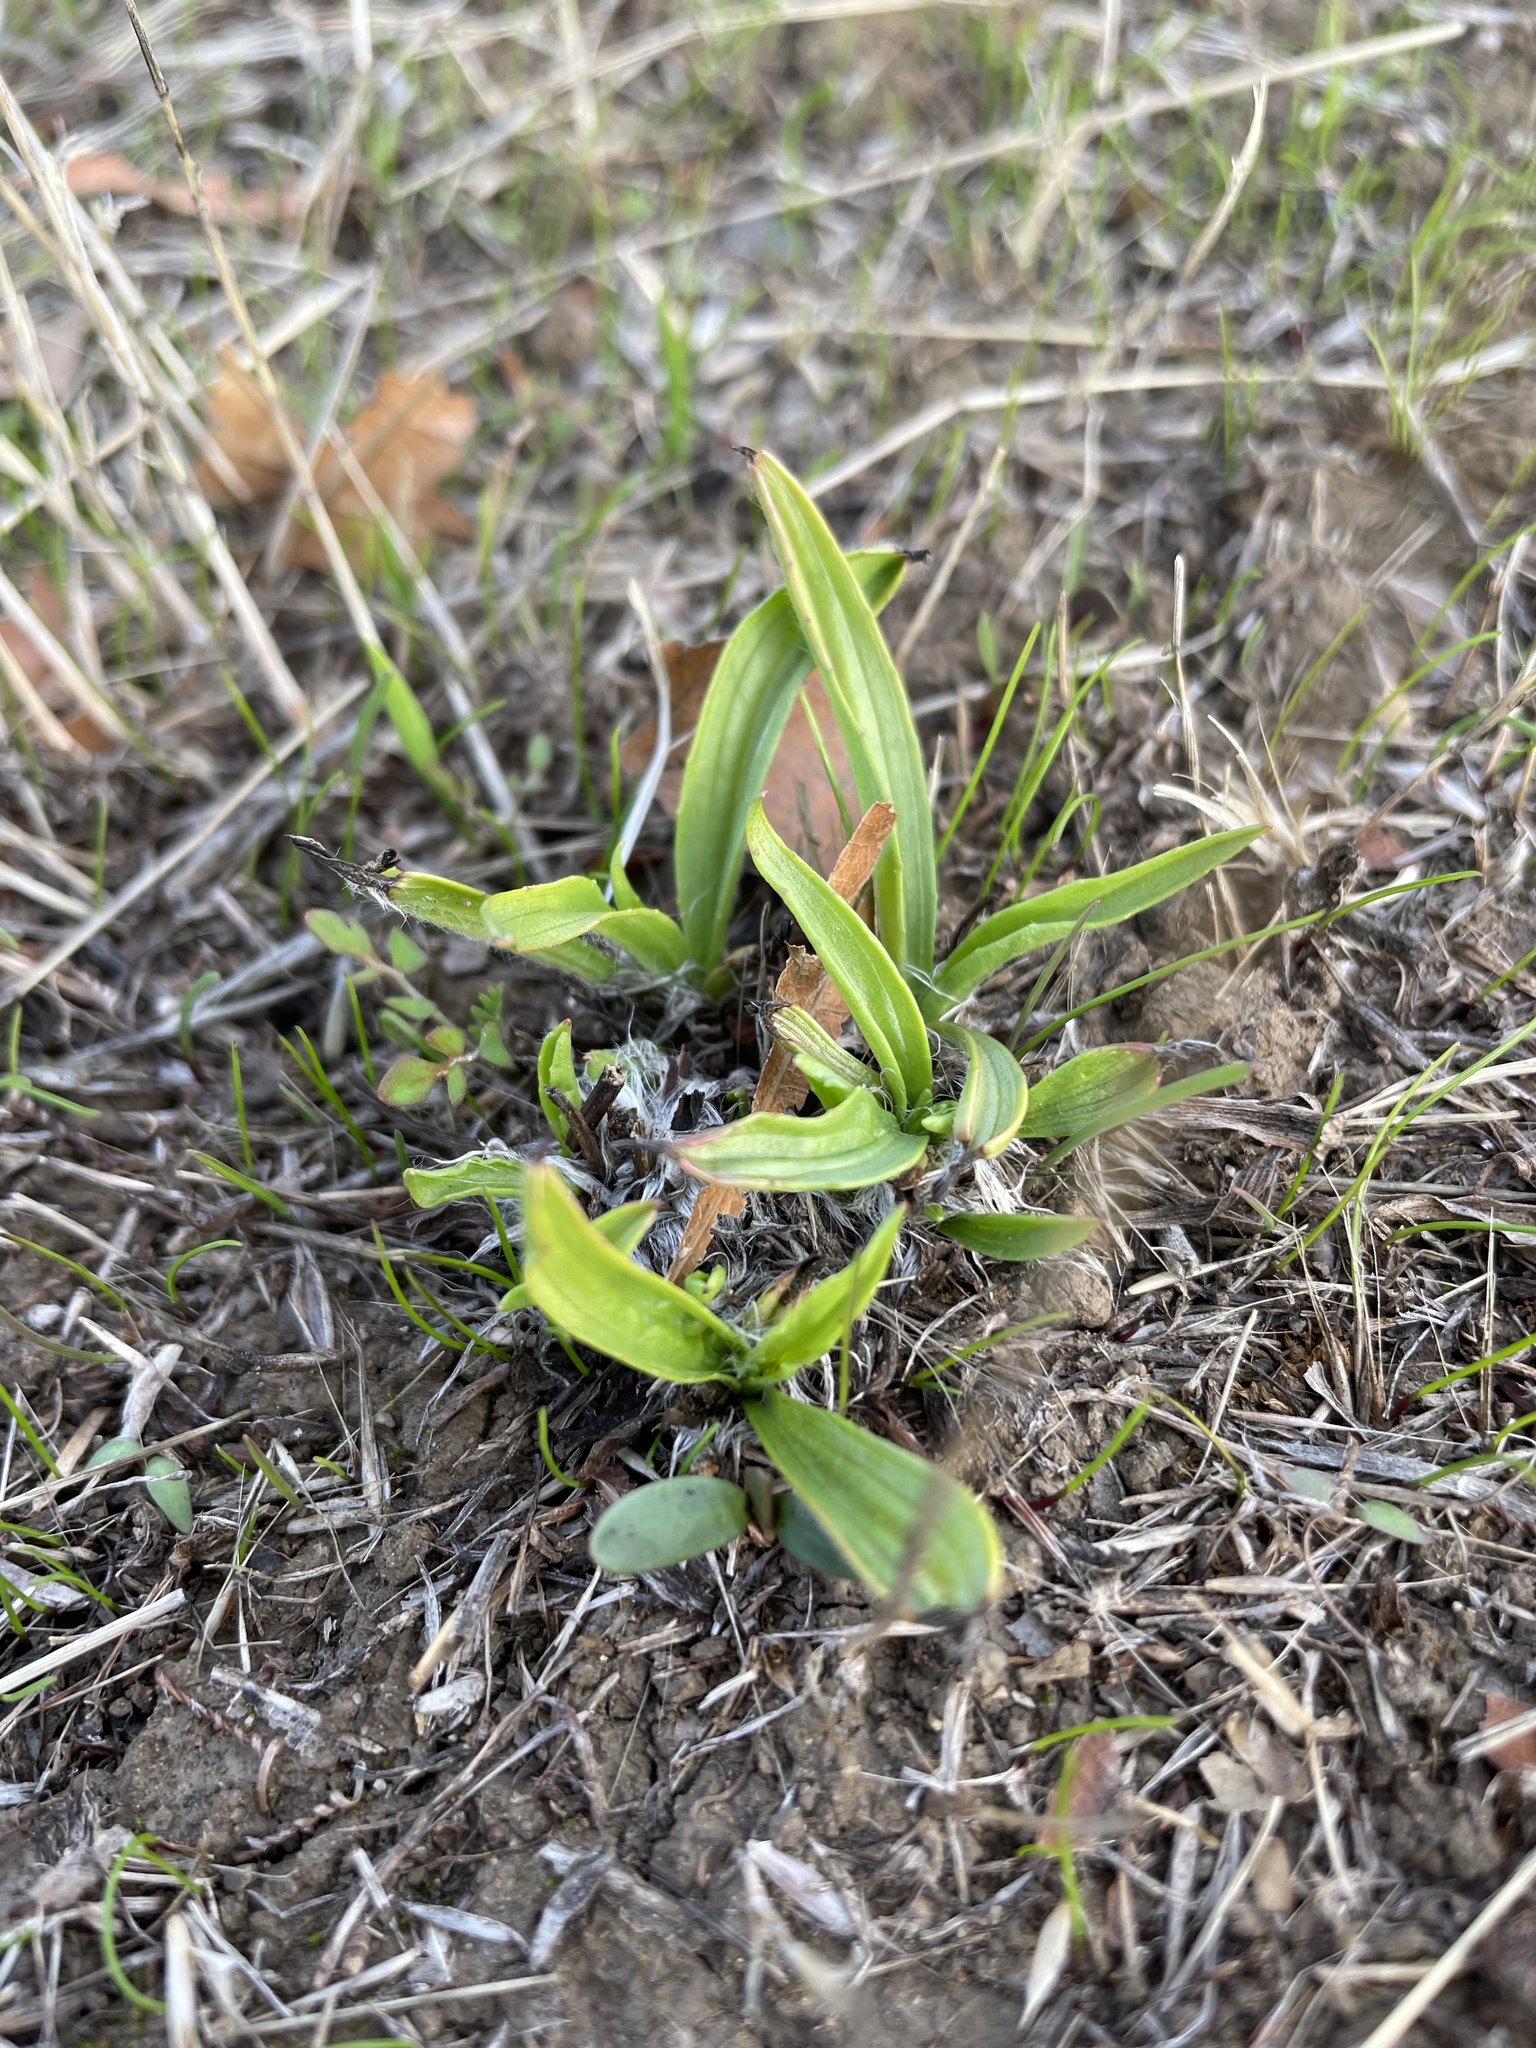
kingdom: Plantae
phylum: Tracheophyta
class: Magnoliopsida
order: Lamiales
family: Plantaginaceae
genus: Plantago
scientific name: Plantago lanceolata
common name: Ribwort plantain
